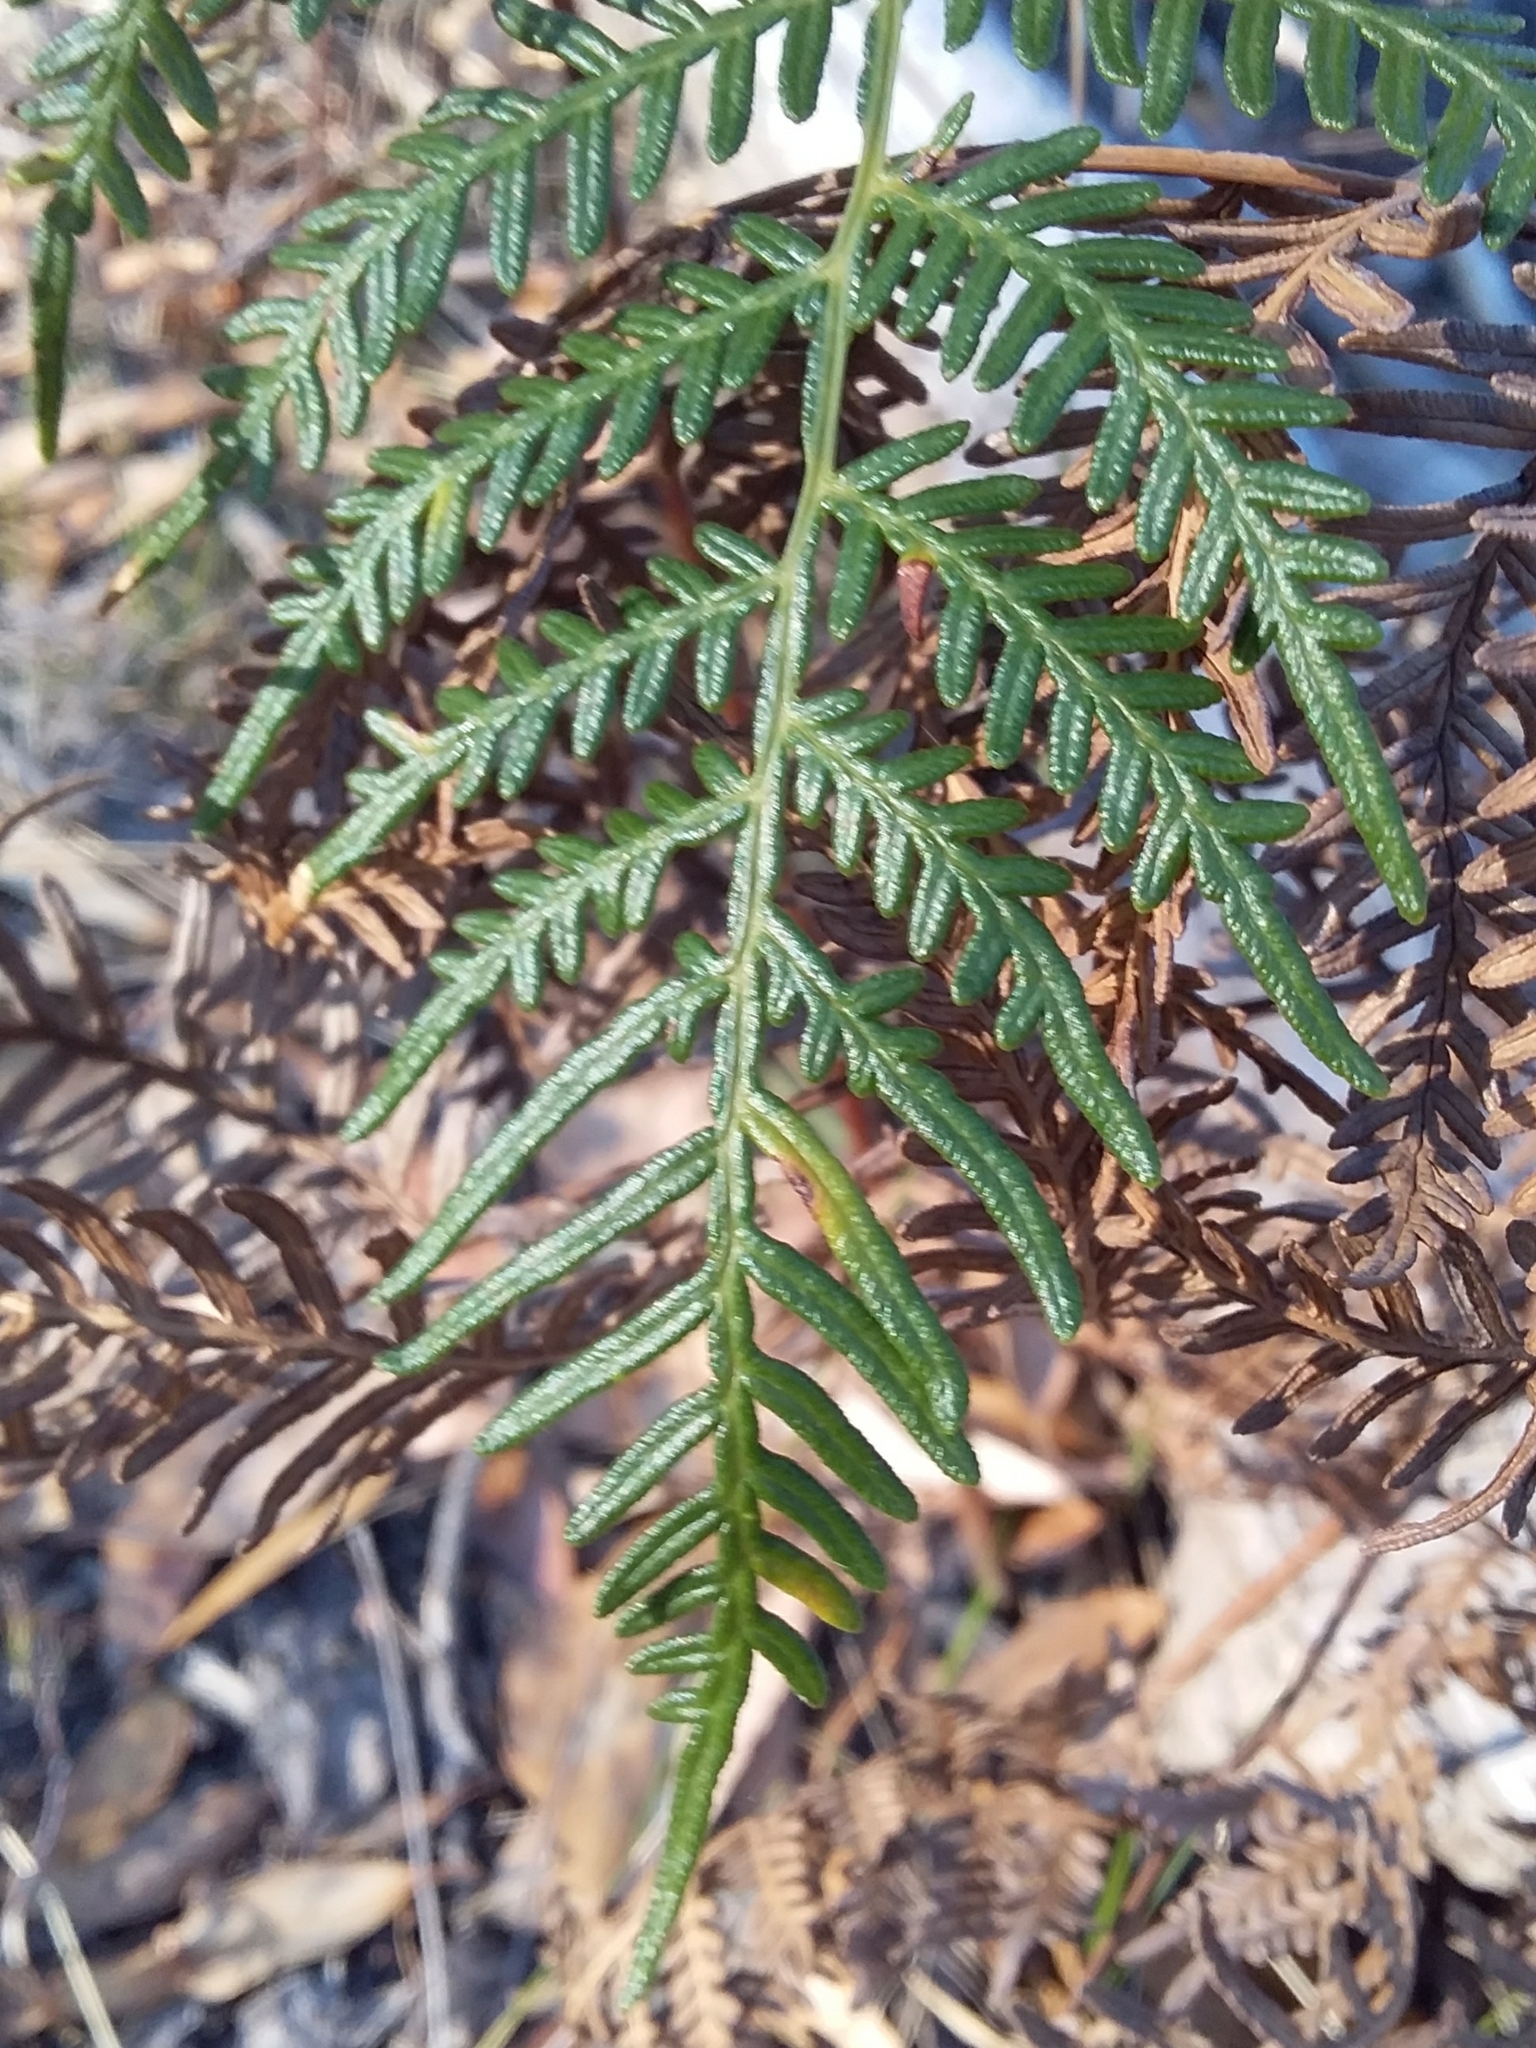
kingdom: Plantae
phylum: Tracheophyta
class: Polypodiopsida
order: Polypodiales
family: Dennstaedtiaceae
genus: Pteridium
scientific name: Pteridium esculentum
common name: Bracken fern
